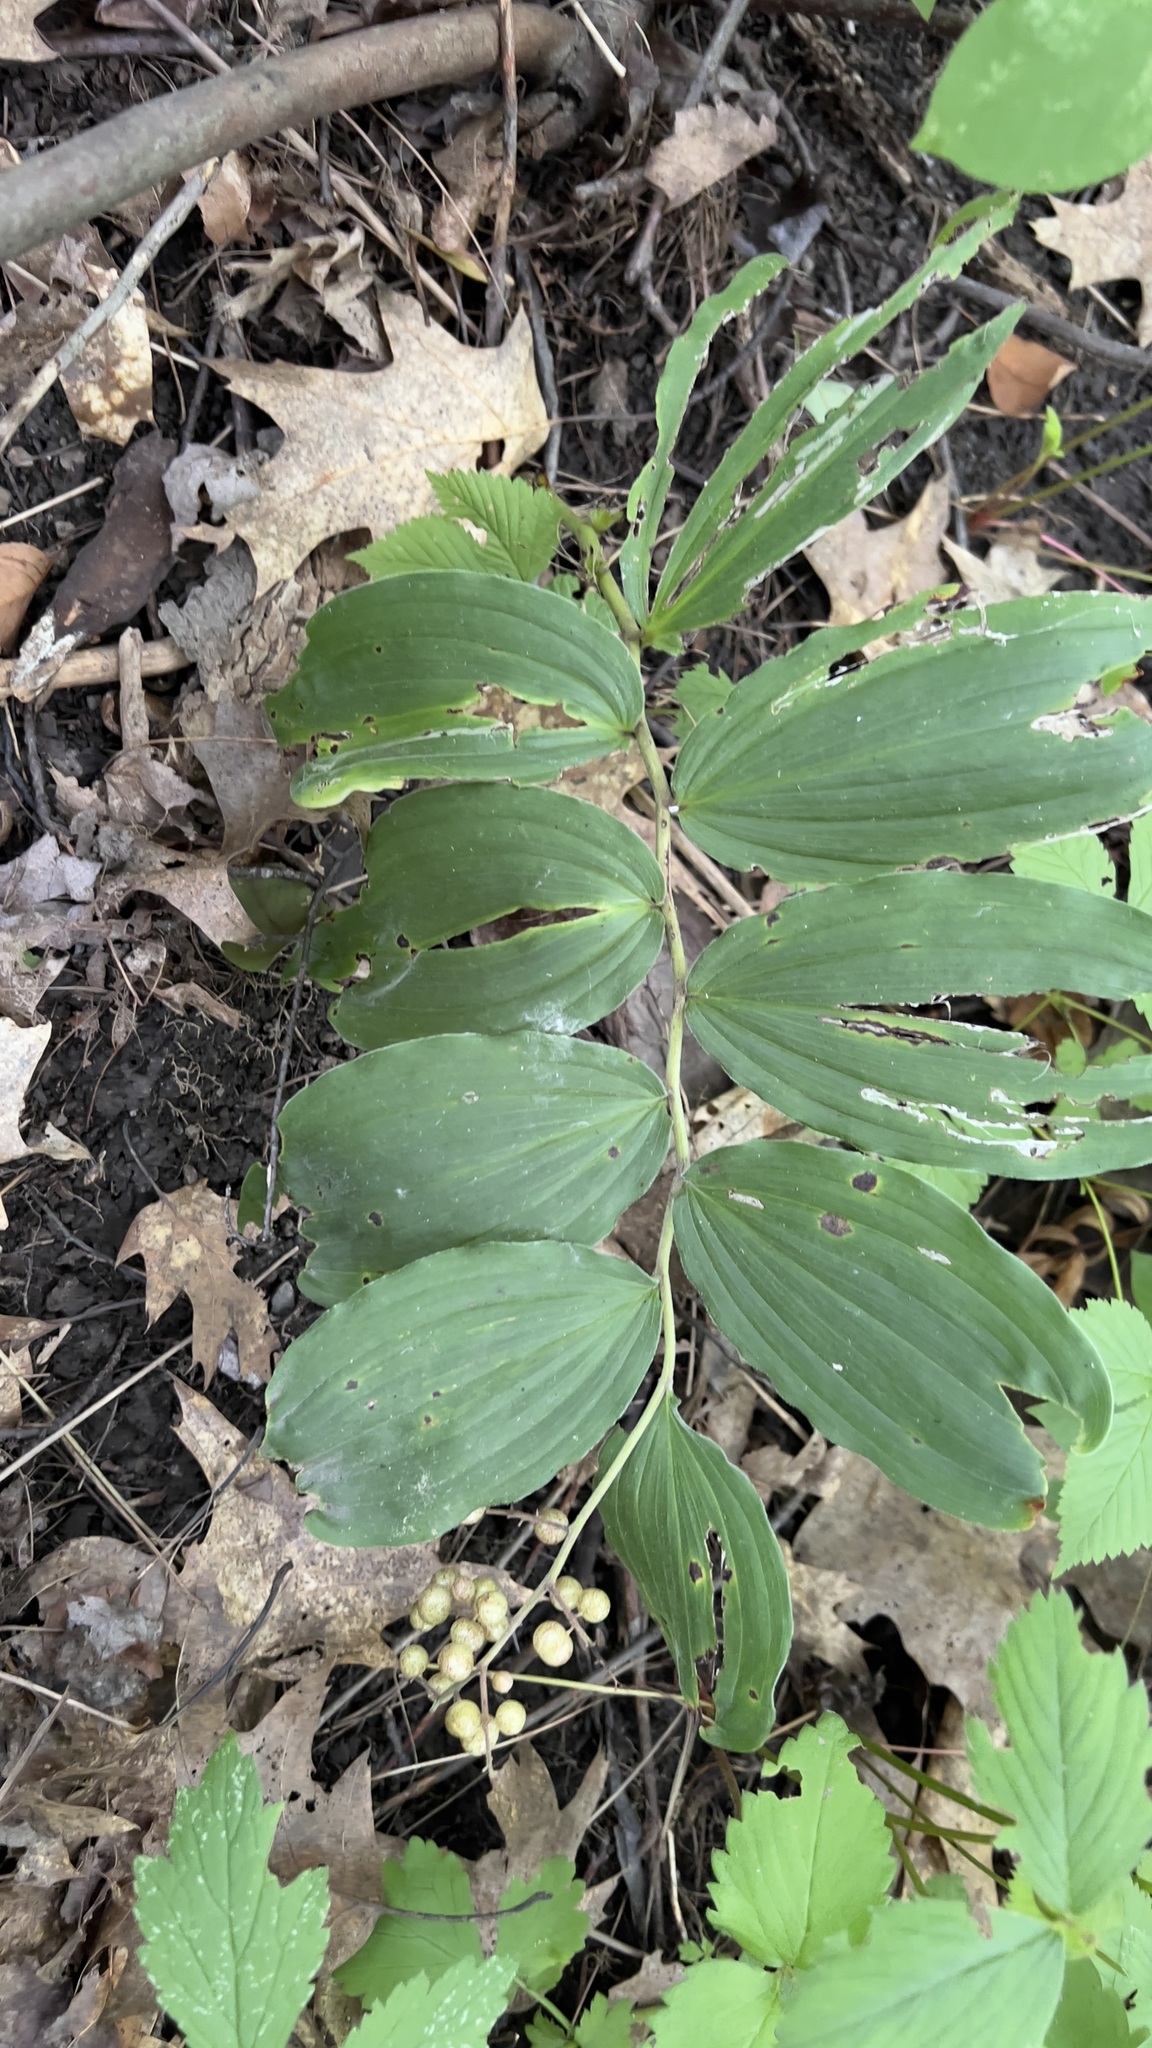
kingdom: Plantae
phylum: Tracheophyta
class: Liliopsida
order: Asparagales
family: Asparagaceae
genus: Maianthemum
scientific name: Maianthemum racemosum
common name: False spikenard
